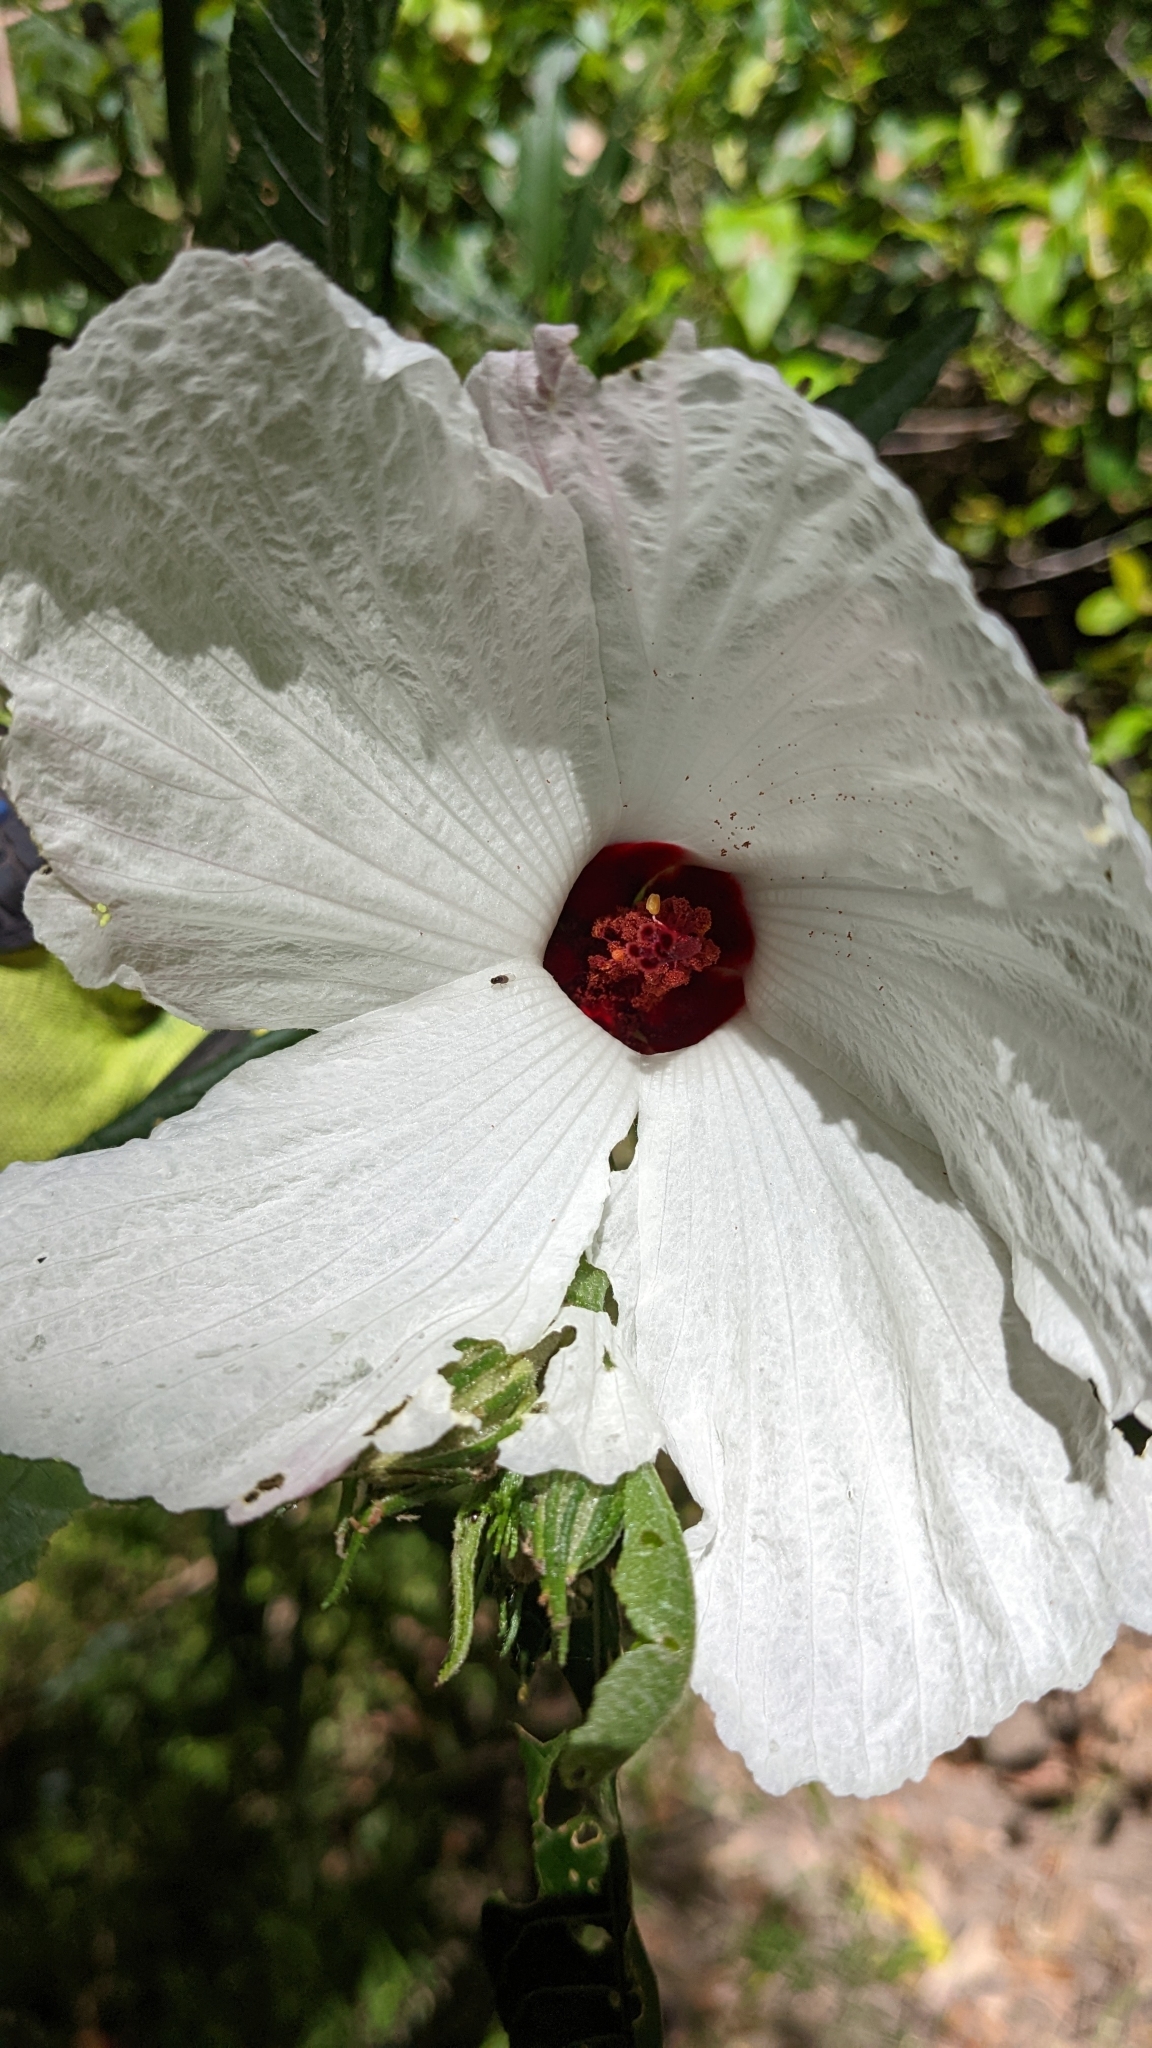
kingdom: Plantae
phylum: Tracheophyta
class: Magnoliopsida
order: Malvales
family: Malvaceae
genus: Hibiscus
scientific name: Hibiscus heterophyllus
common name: Queensland-sorrel
